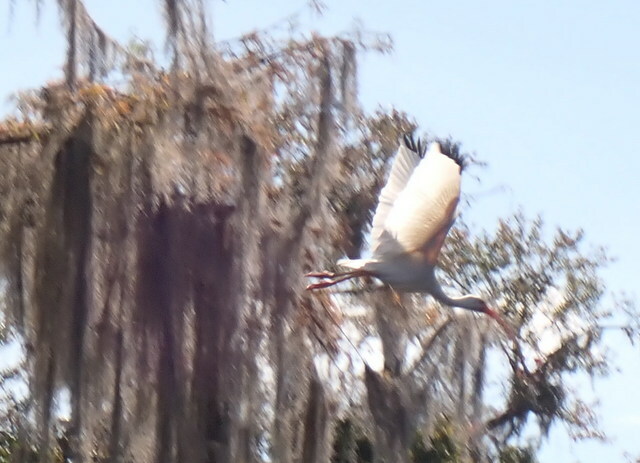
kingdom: Animalia
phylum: Chordata
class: Aves
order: Pelecaniformes
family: Threskiornithidae
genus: Eudocimus
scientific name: Eudocimus albus
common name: White ibis
